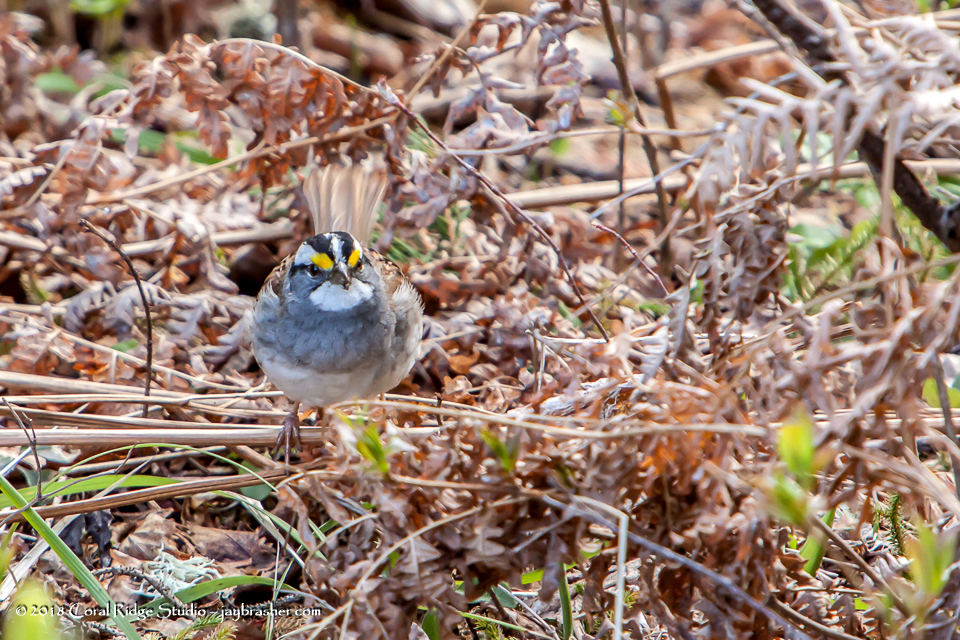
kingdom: Animalia
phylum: Chordata
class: Aves
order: Passeriformes
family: Passerellidae
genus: Zonotrichia
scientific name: Zonotrichia albicollis
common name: White-throated sparrow
